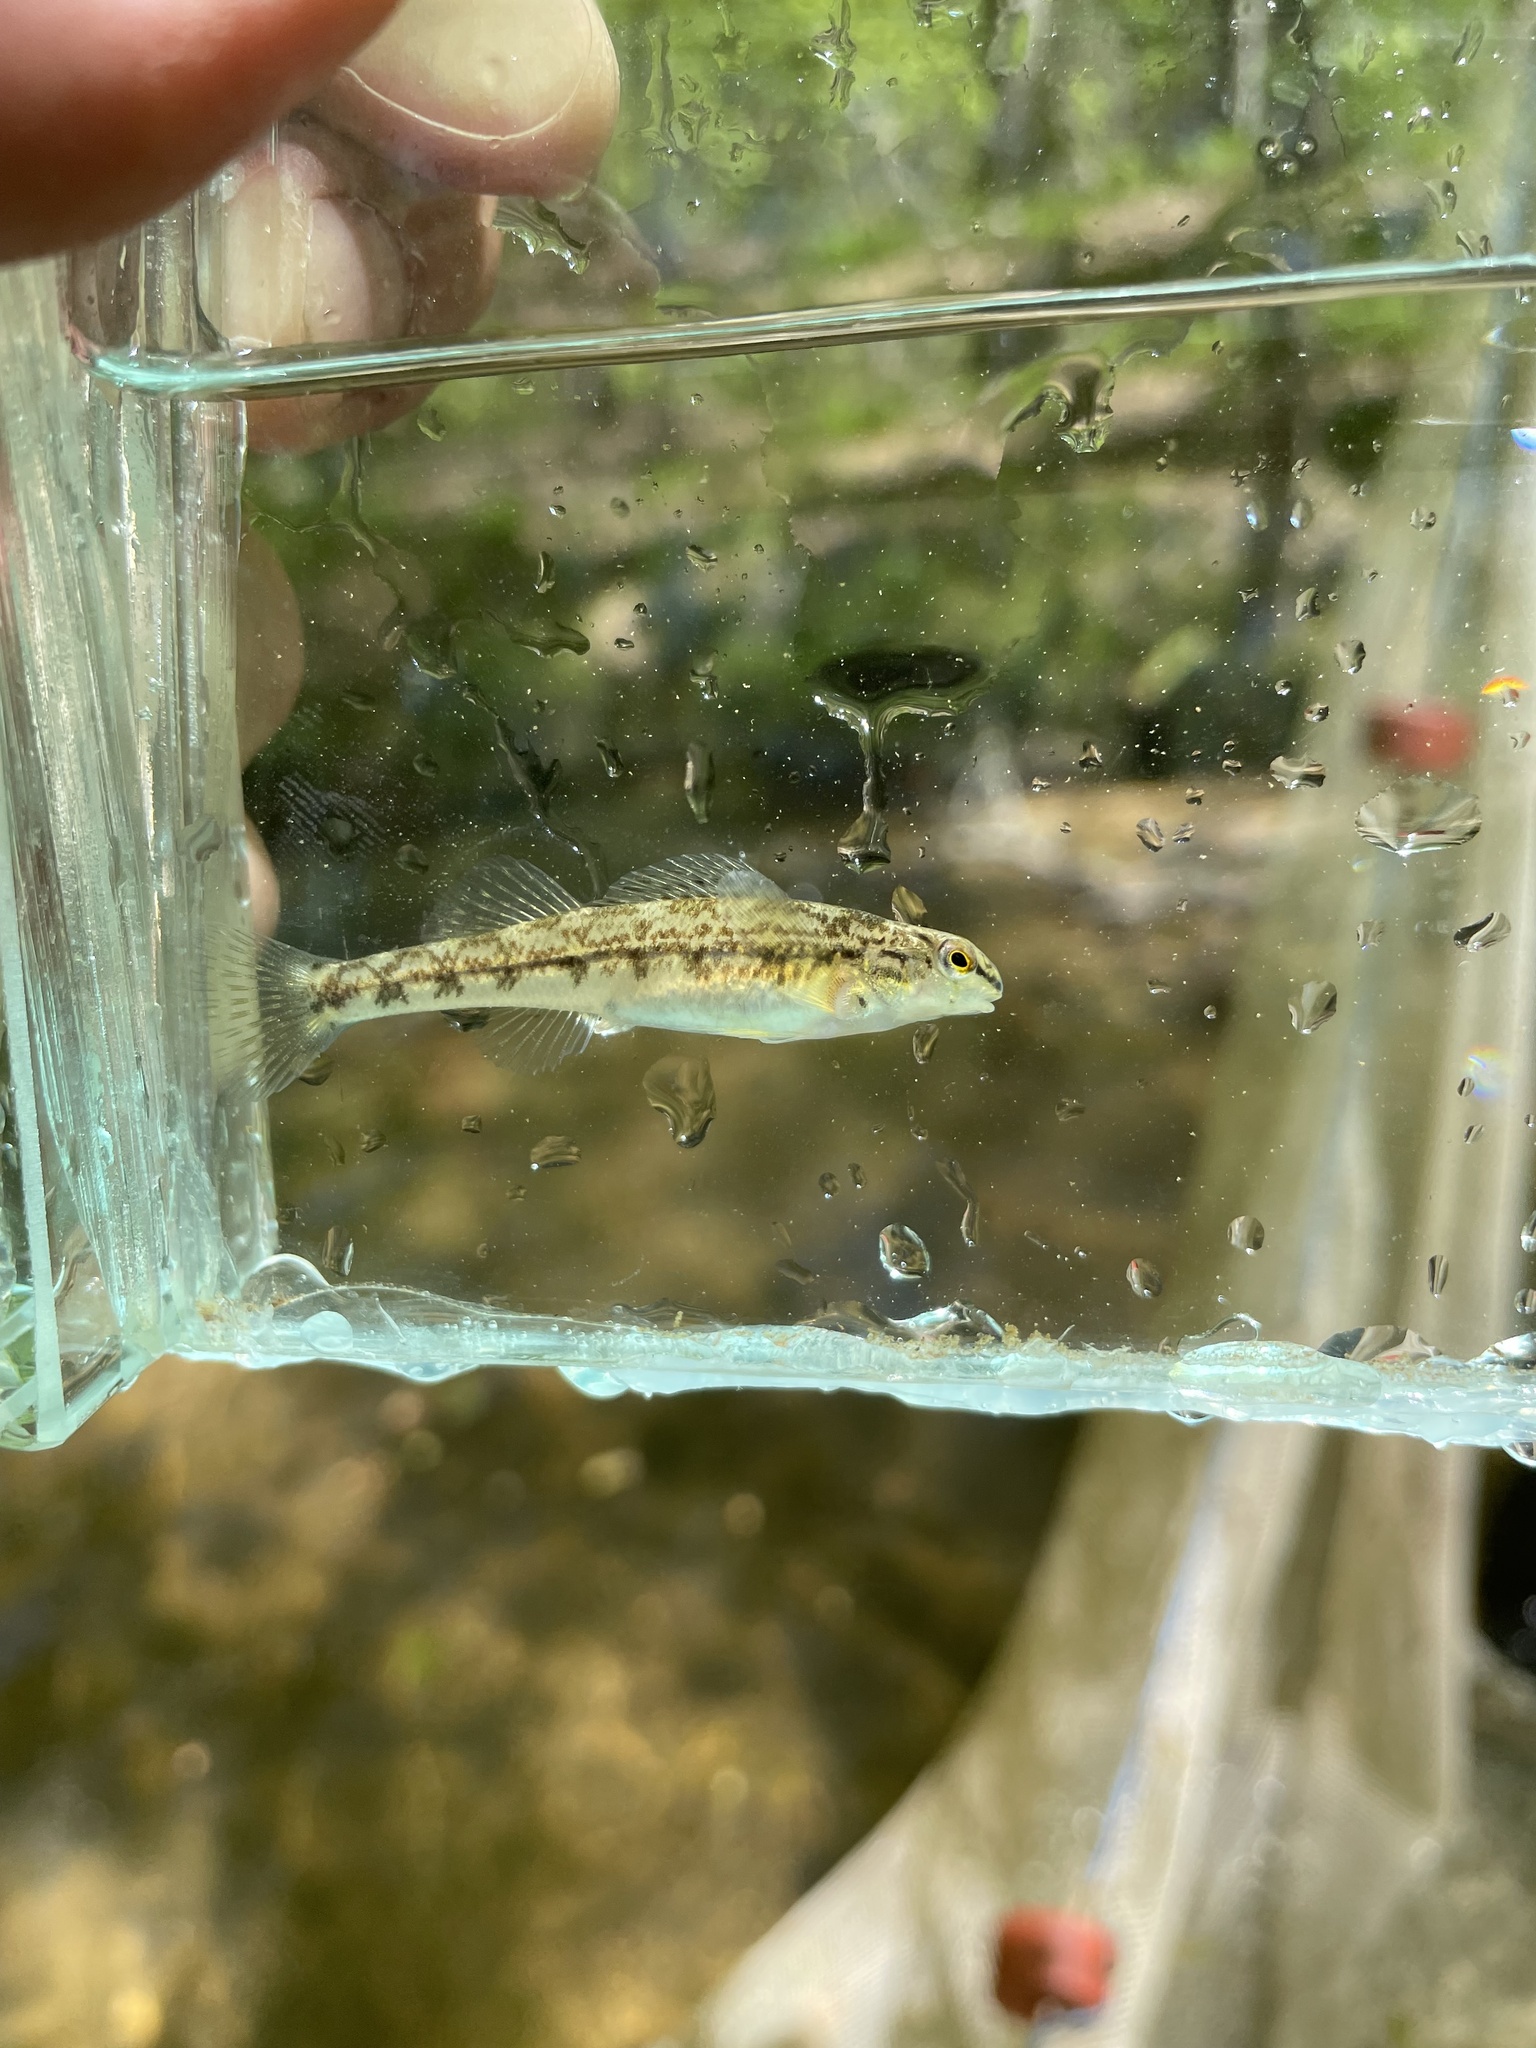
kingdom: Animalia
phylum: Chordata
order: Perciformes
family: Percidae
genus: Etheostoma
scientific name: Etheostoma stigmaeum
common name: Speckled darter
